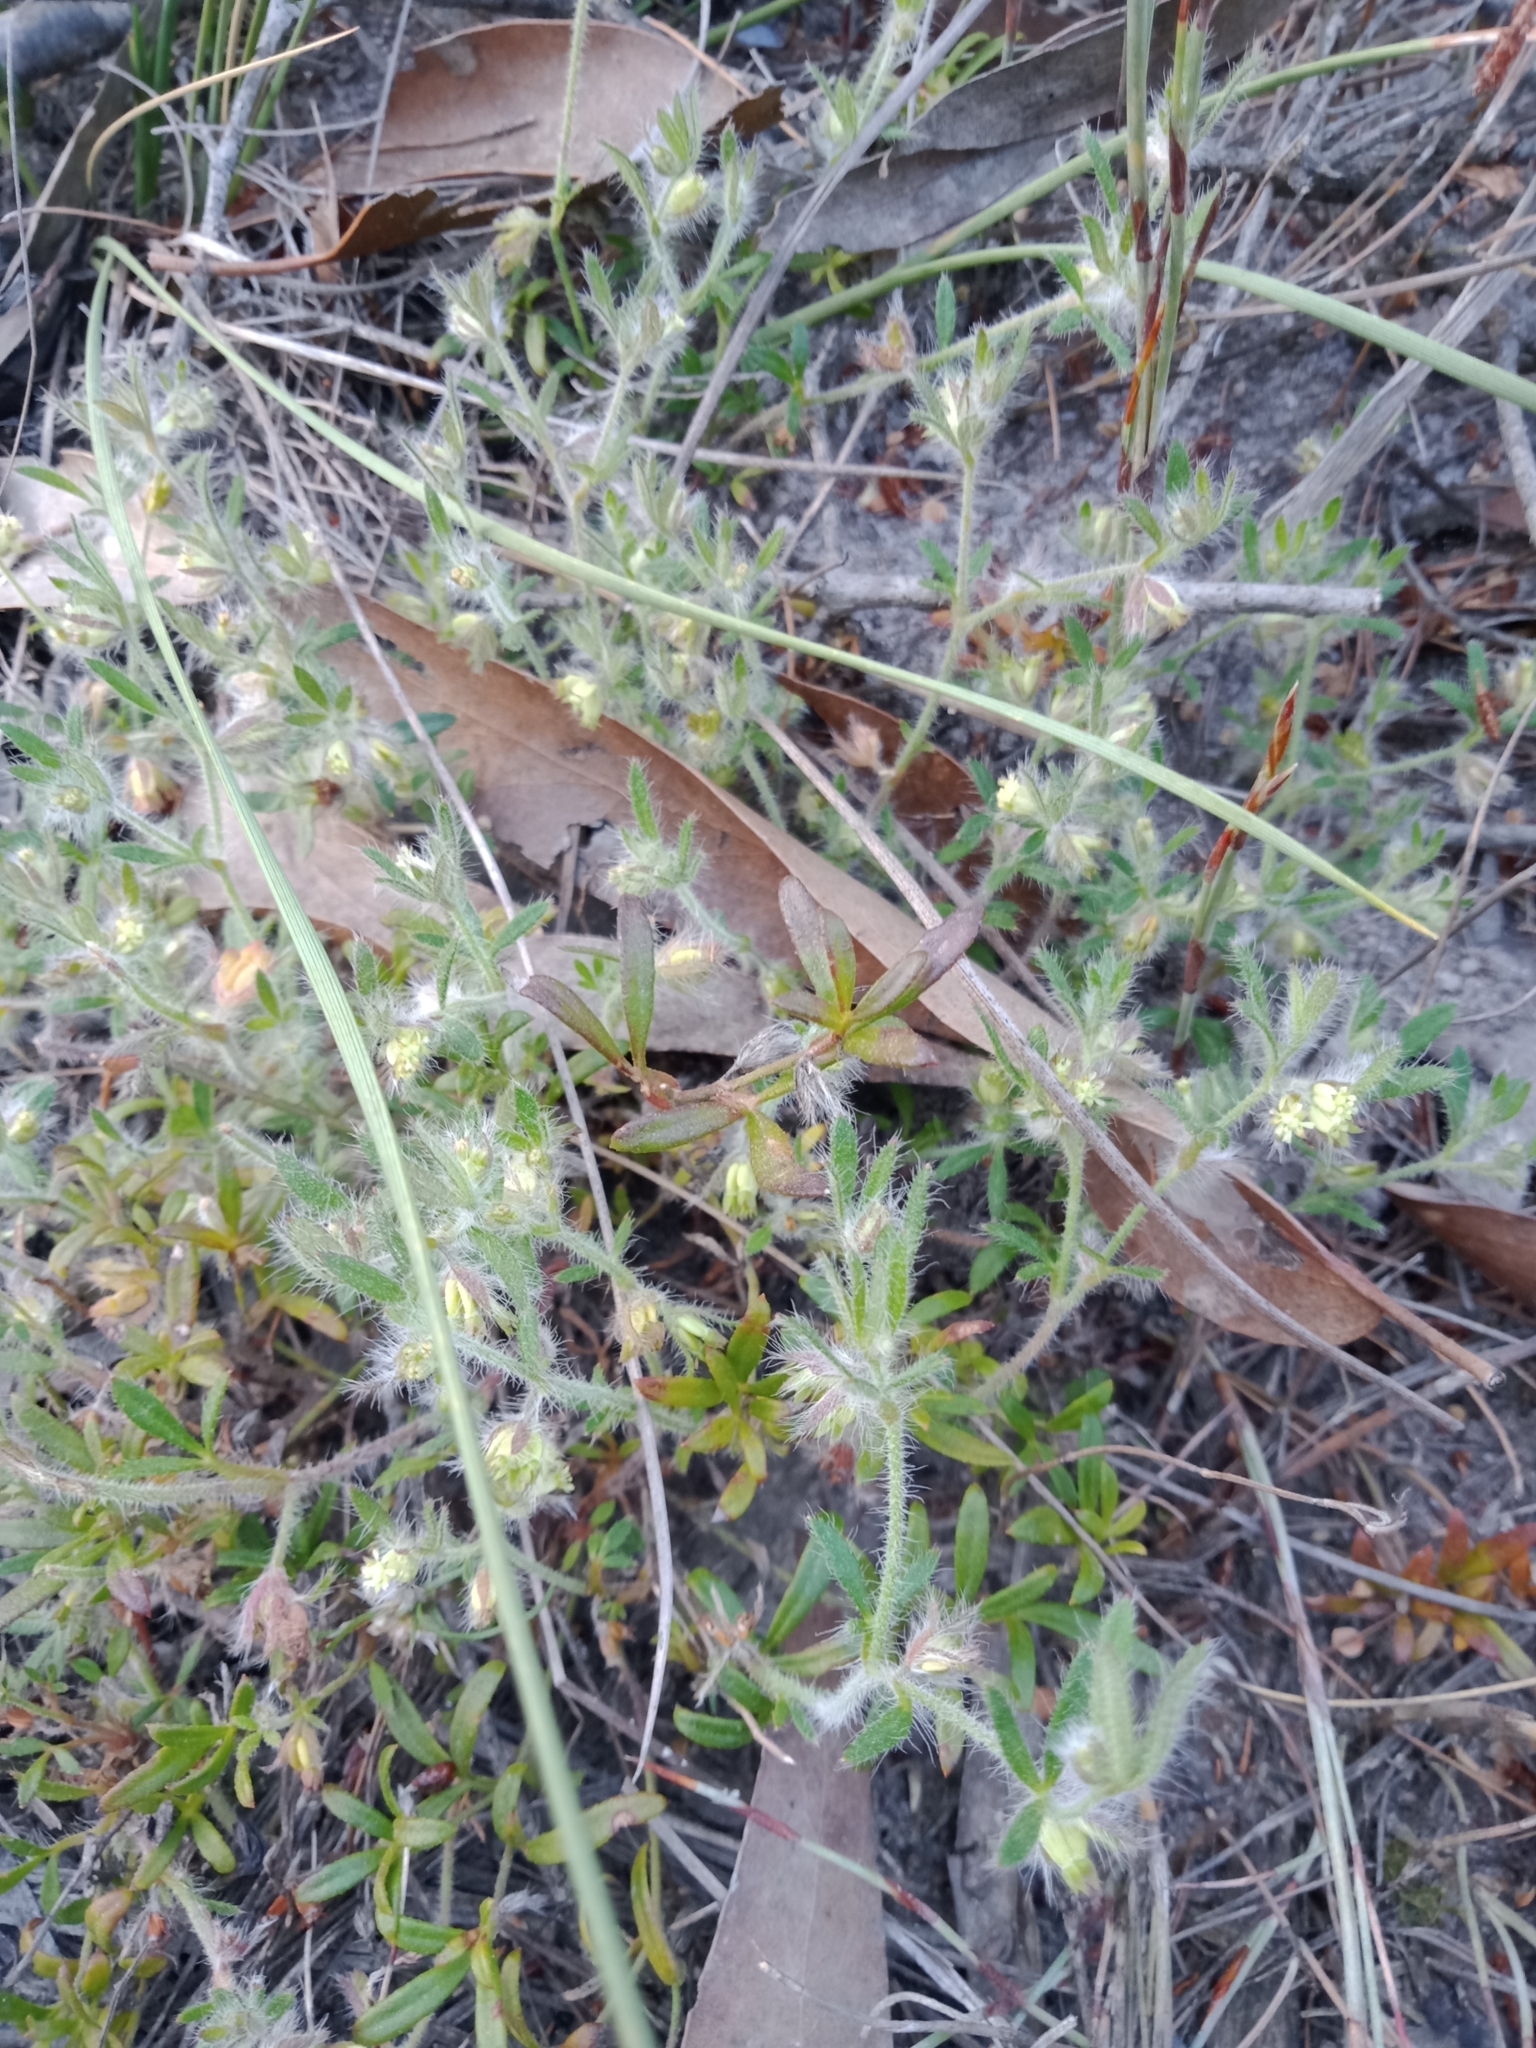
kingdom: Plantae
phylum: Tracheophyta
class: Magnoliopsida
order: Apiales
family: Apiaceae
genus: Xanthosia
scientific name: Xanthosia huegelii
